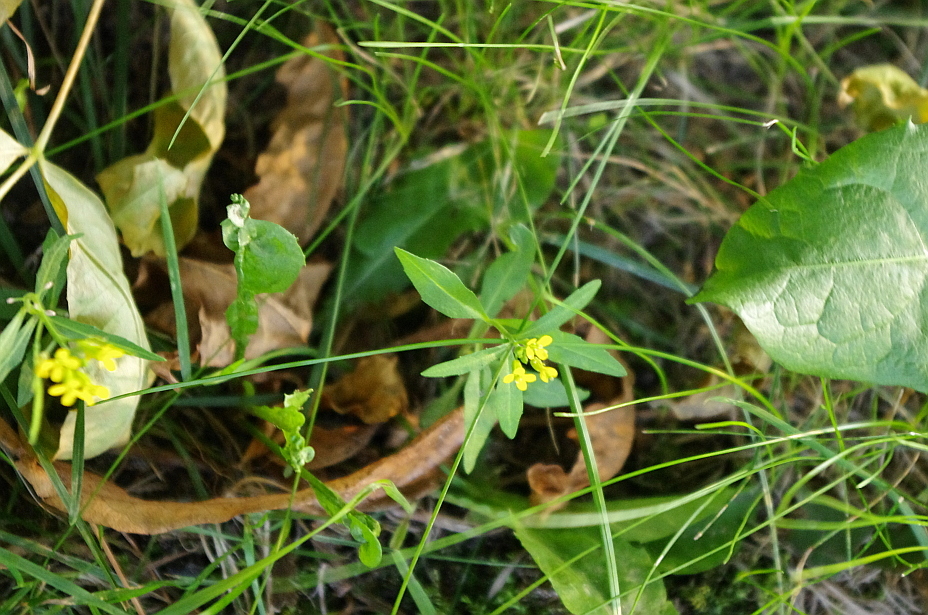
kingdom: Plantae
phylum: Tracheophyta
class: Magnoliopsida
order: Brassicales
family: Brassicaceae
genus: Erysimum
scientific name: Erysimum cheiranthoides
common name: Treacle mustard
